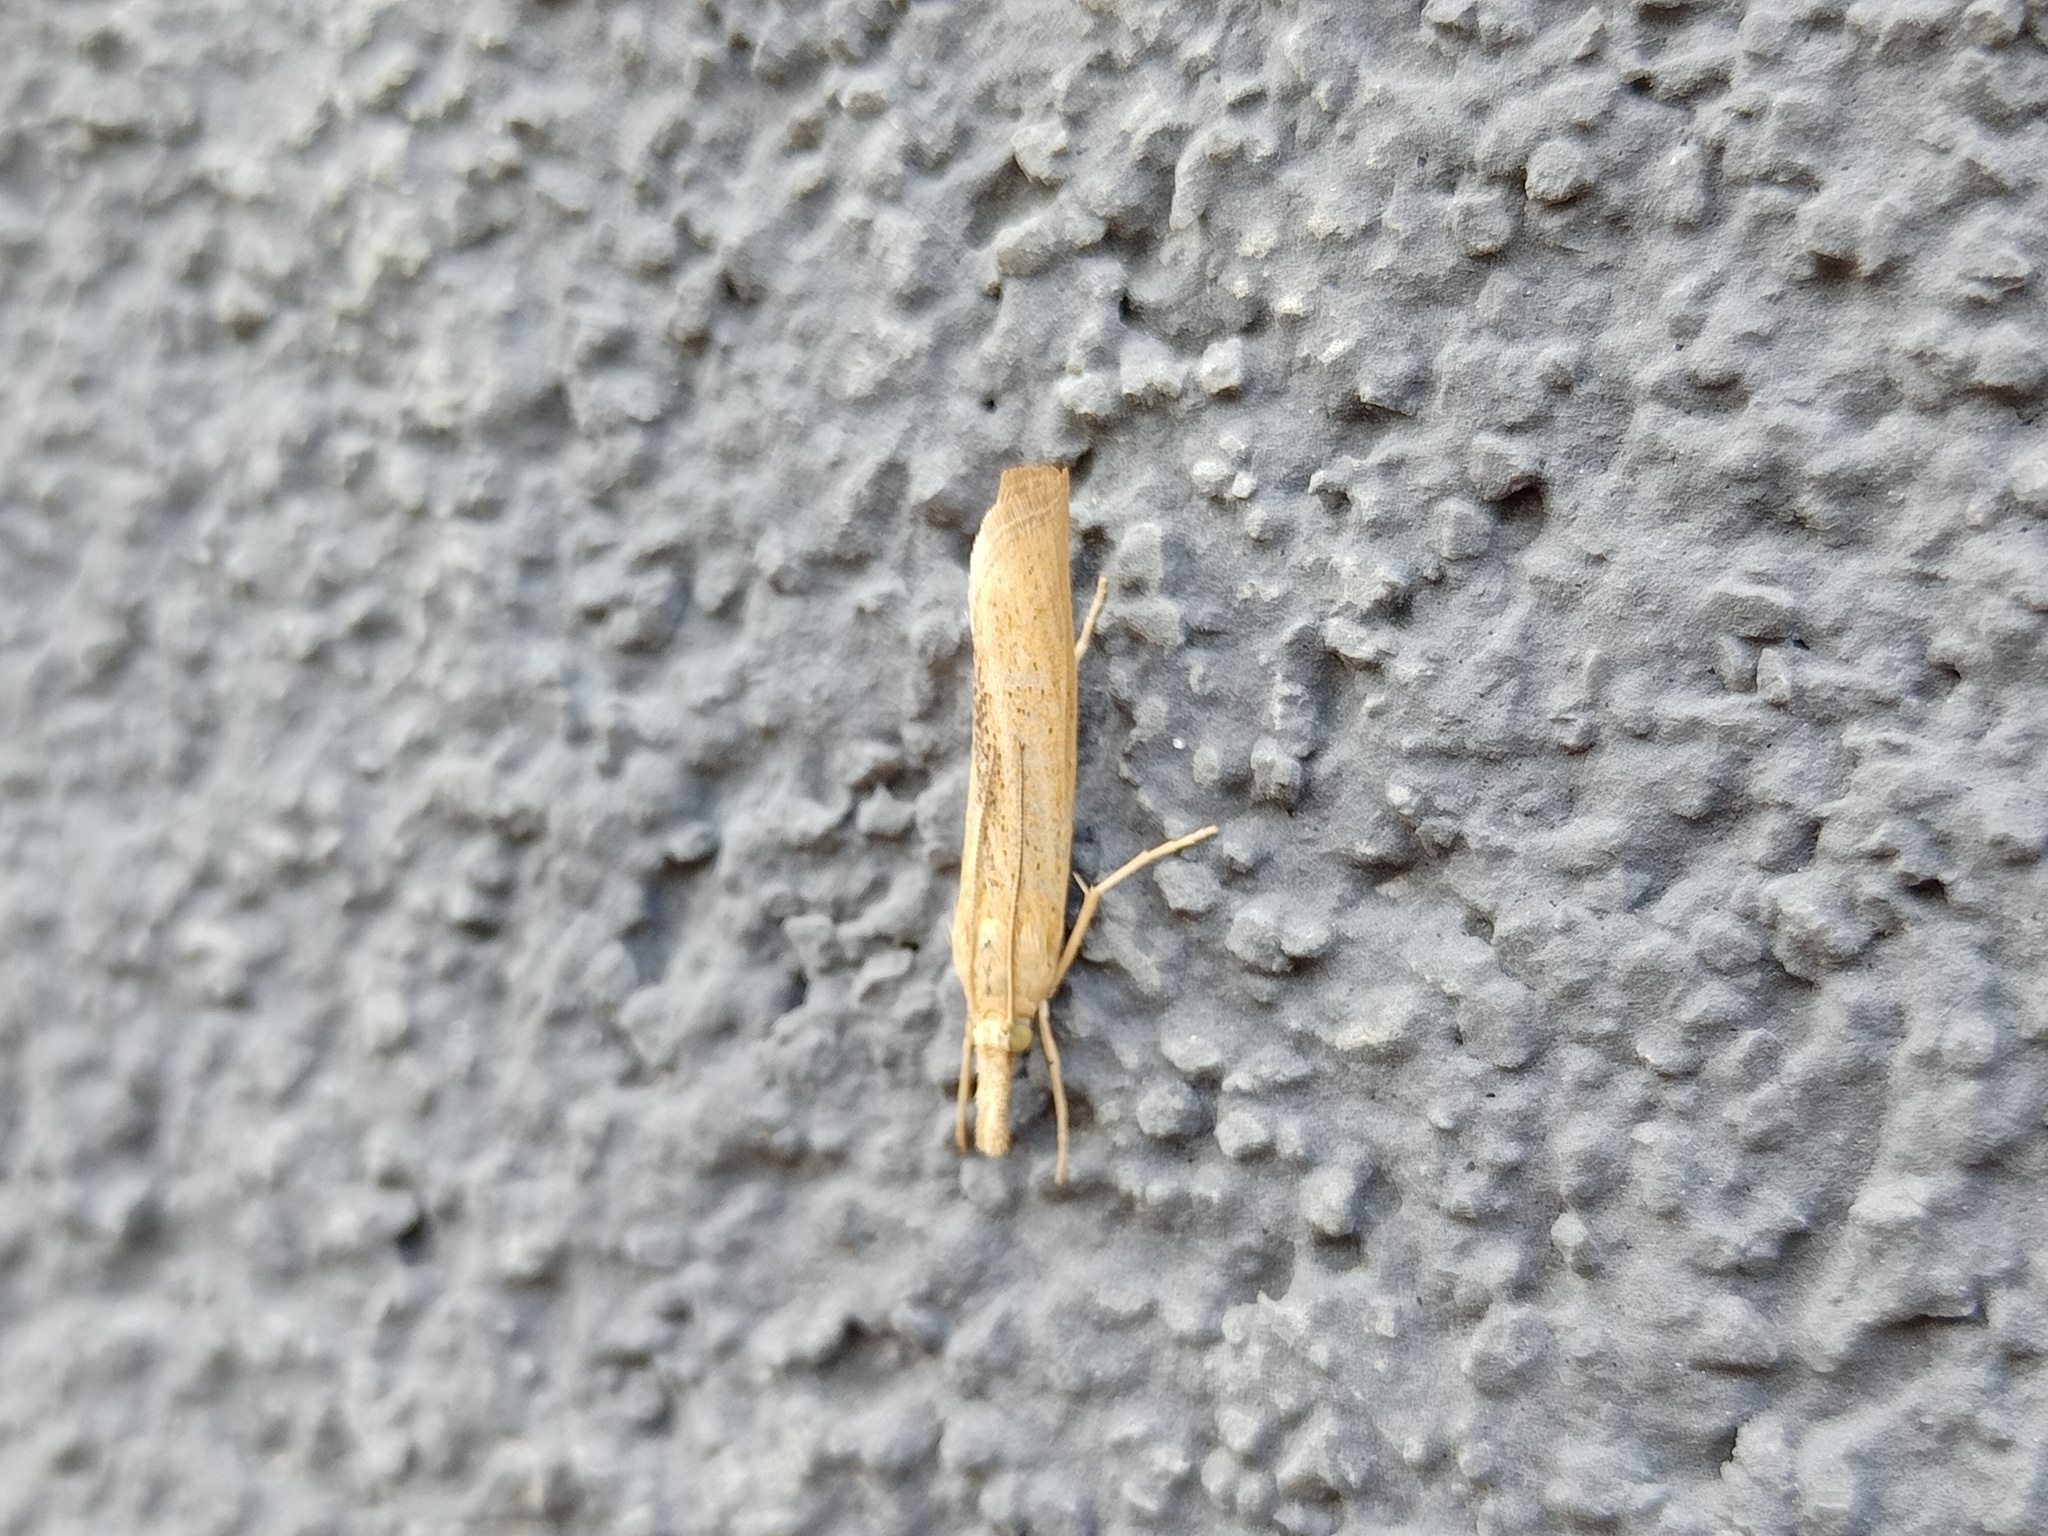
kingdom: Animalia
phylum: Arthropoda
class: Insecta
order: Lepidoptera
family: Crambidae
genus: Pediasia
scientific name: Pediasia luteella
